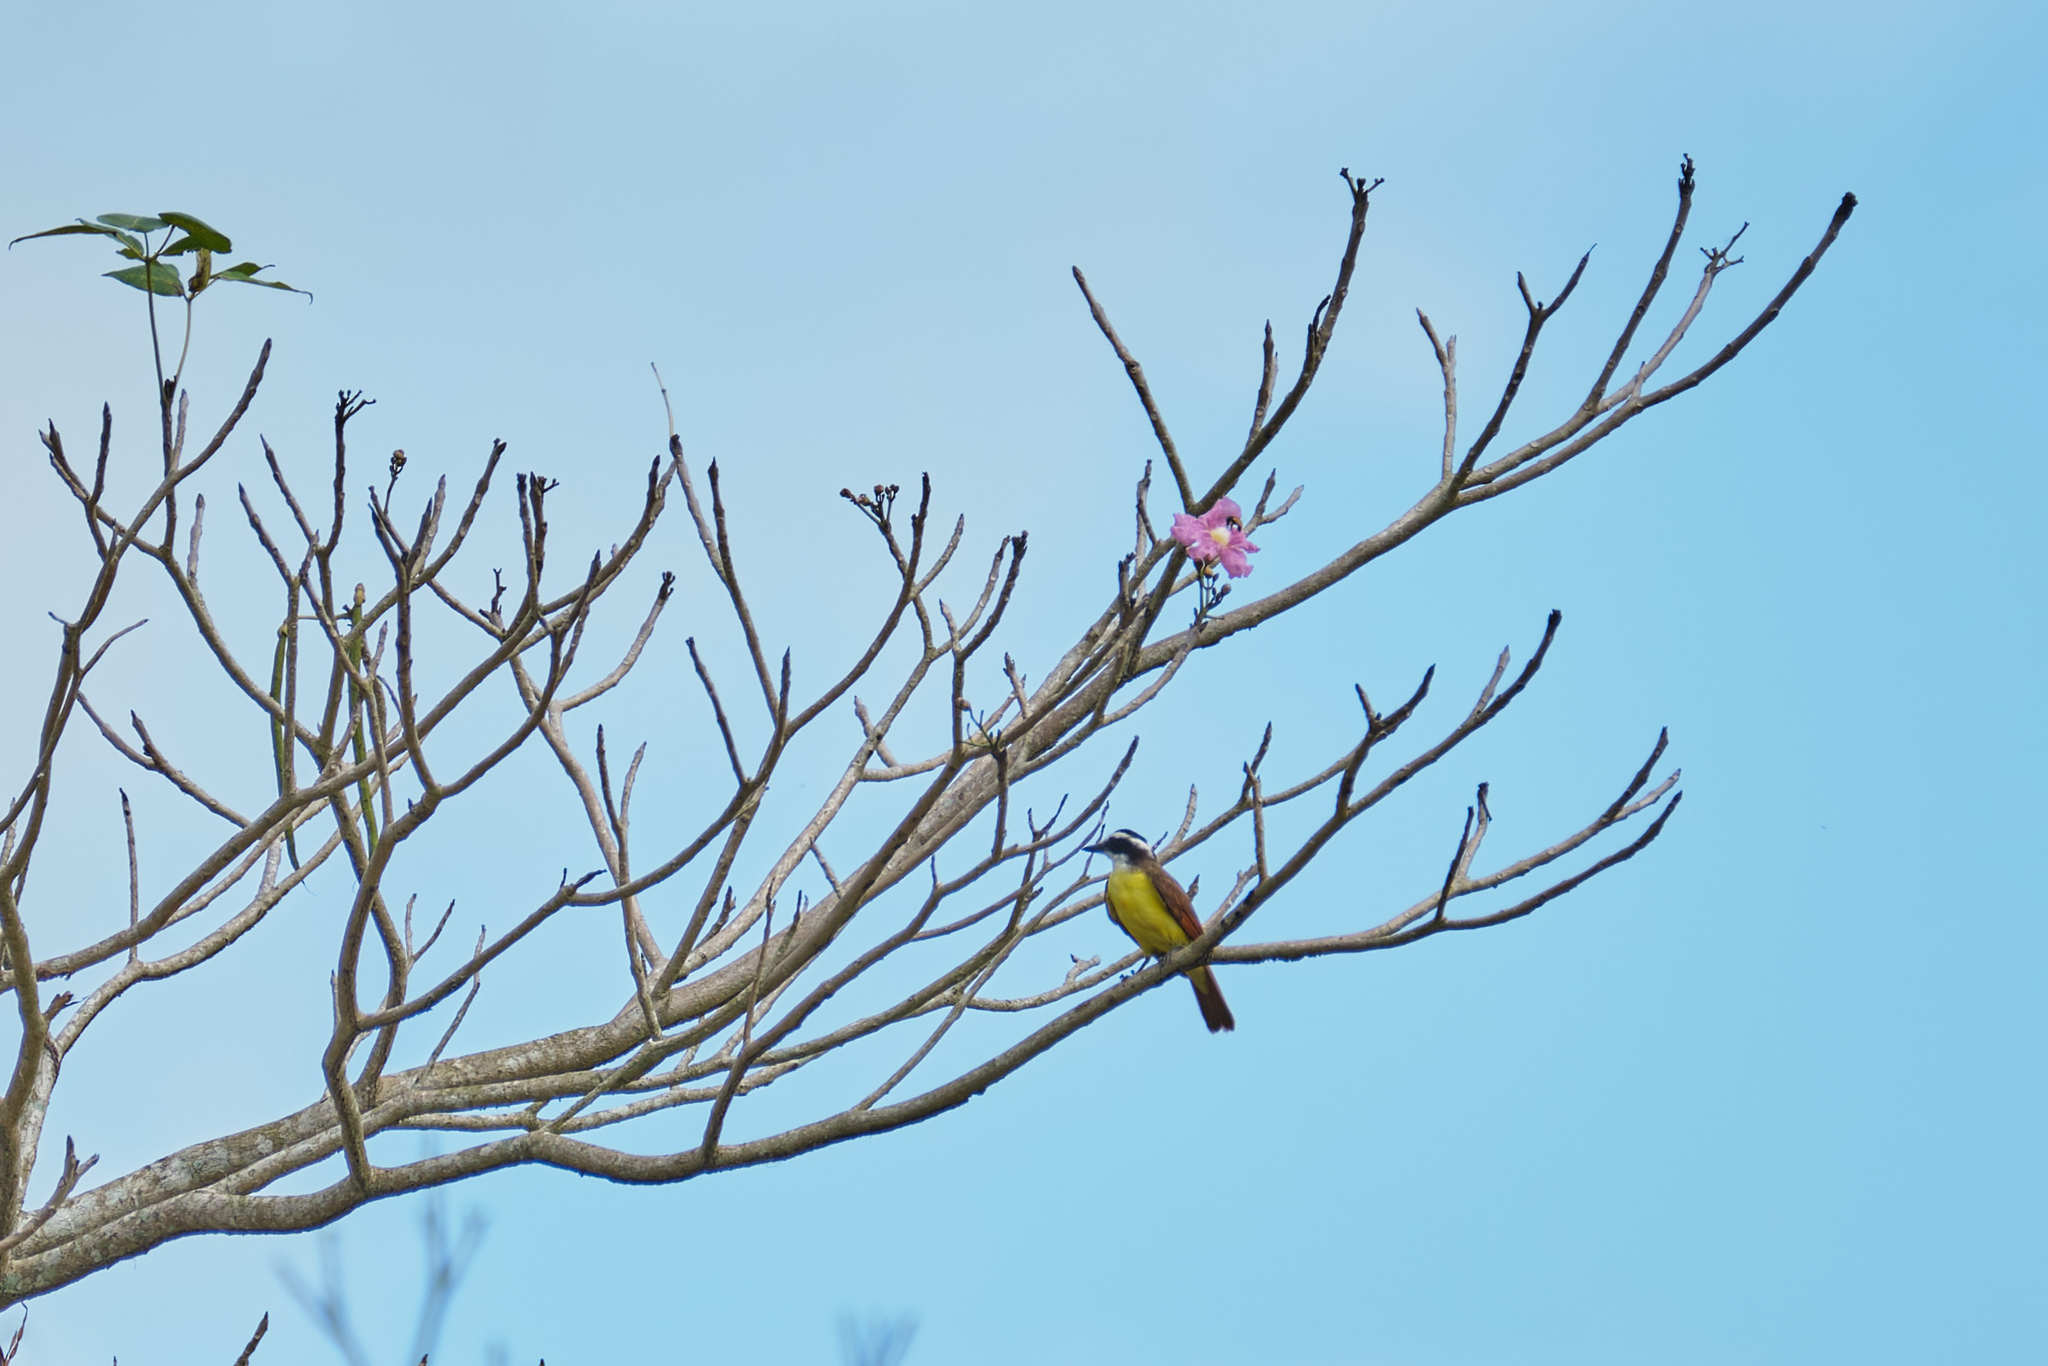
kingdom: Animalia
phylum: Chordata
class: Aves
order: Passeriformes
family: Tyrannidae
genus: Pitangus
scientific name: Pitangus sulphuratus
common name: Great kiskadee
